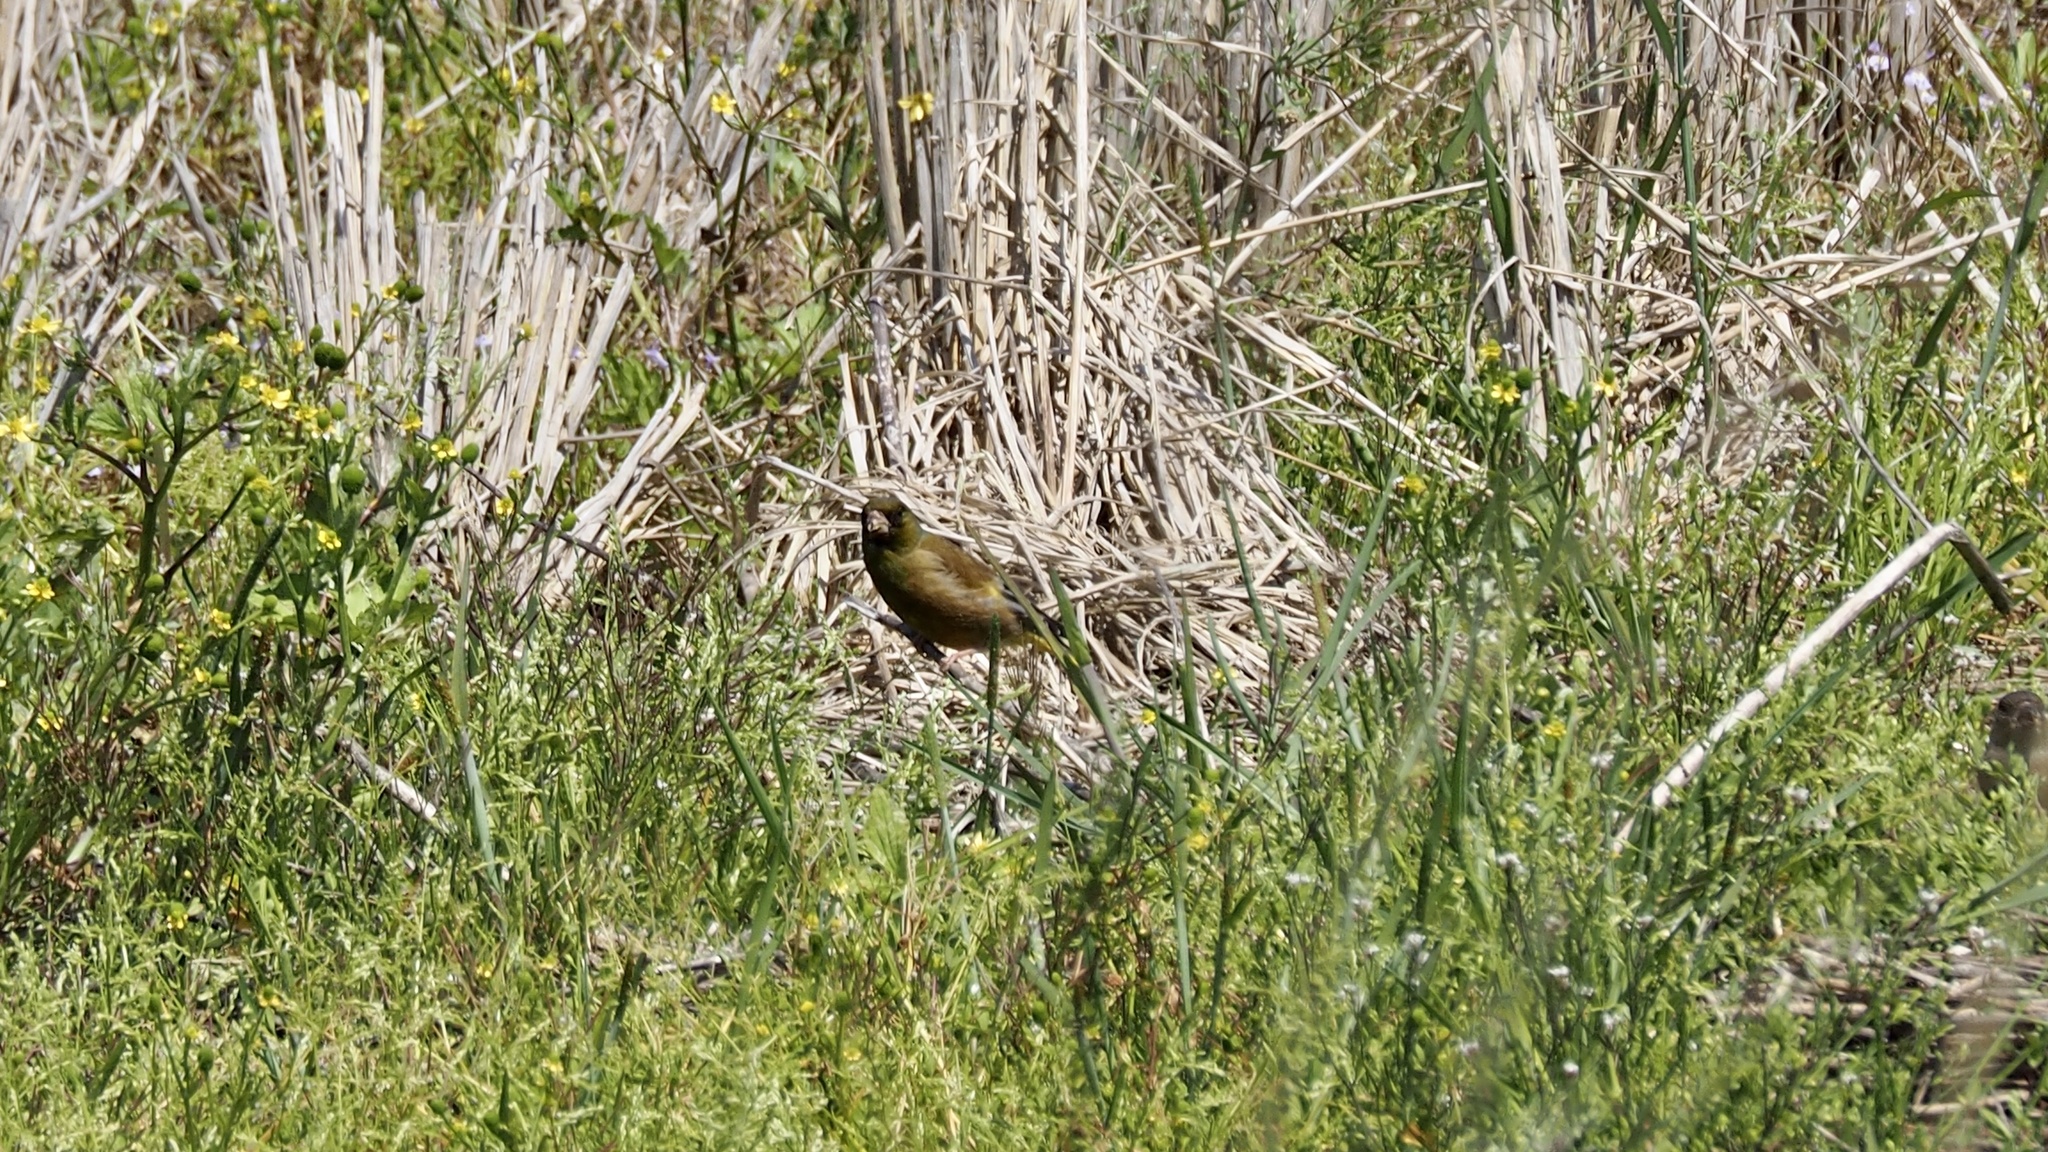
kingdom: Plantae
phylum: Tracheophyta
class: Liliopsida
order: Poales
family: Poaceae
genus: Chloris
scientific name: Chloris sinica
